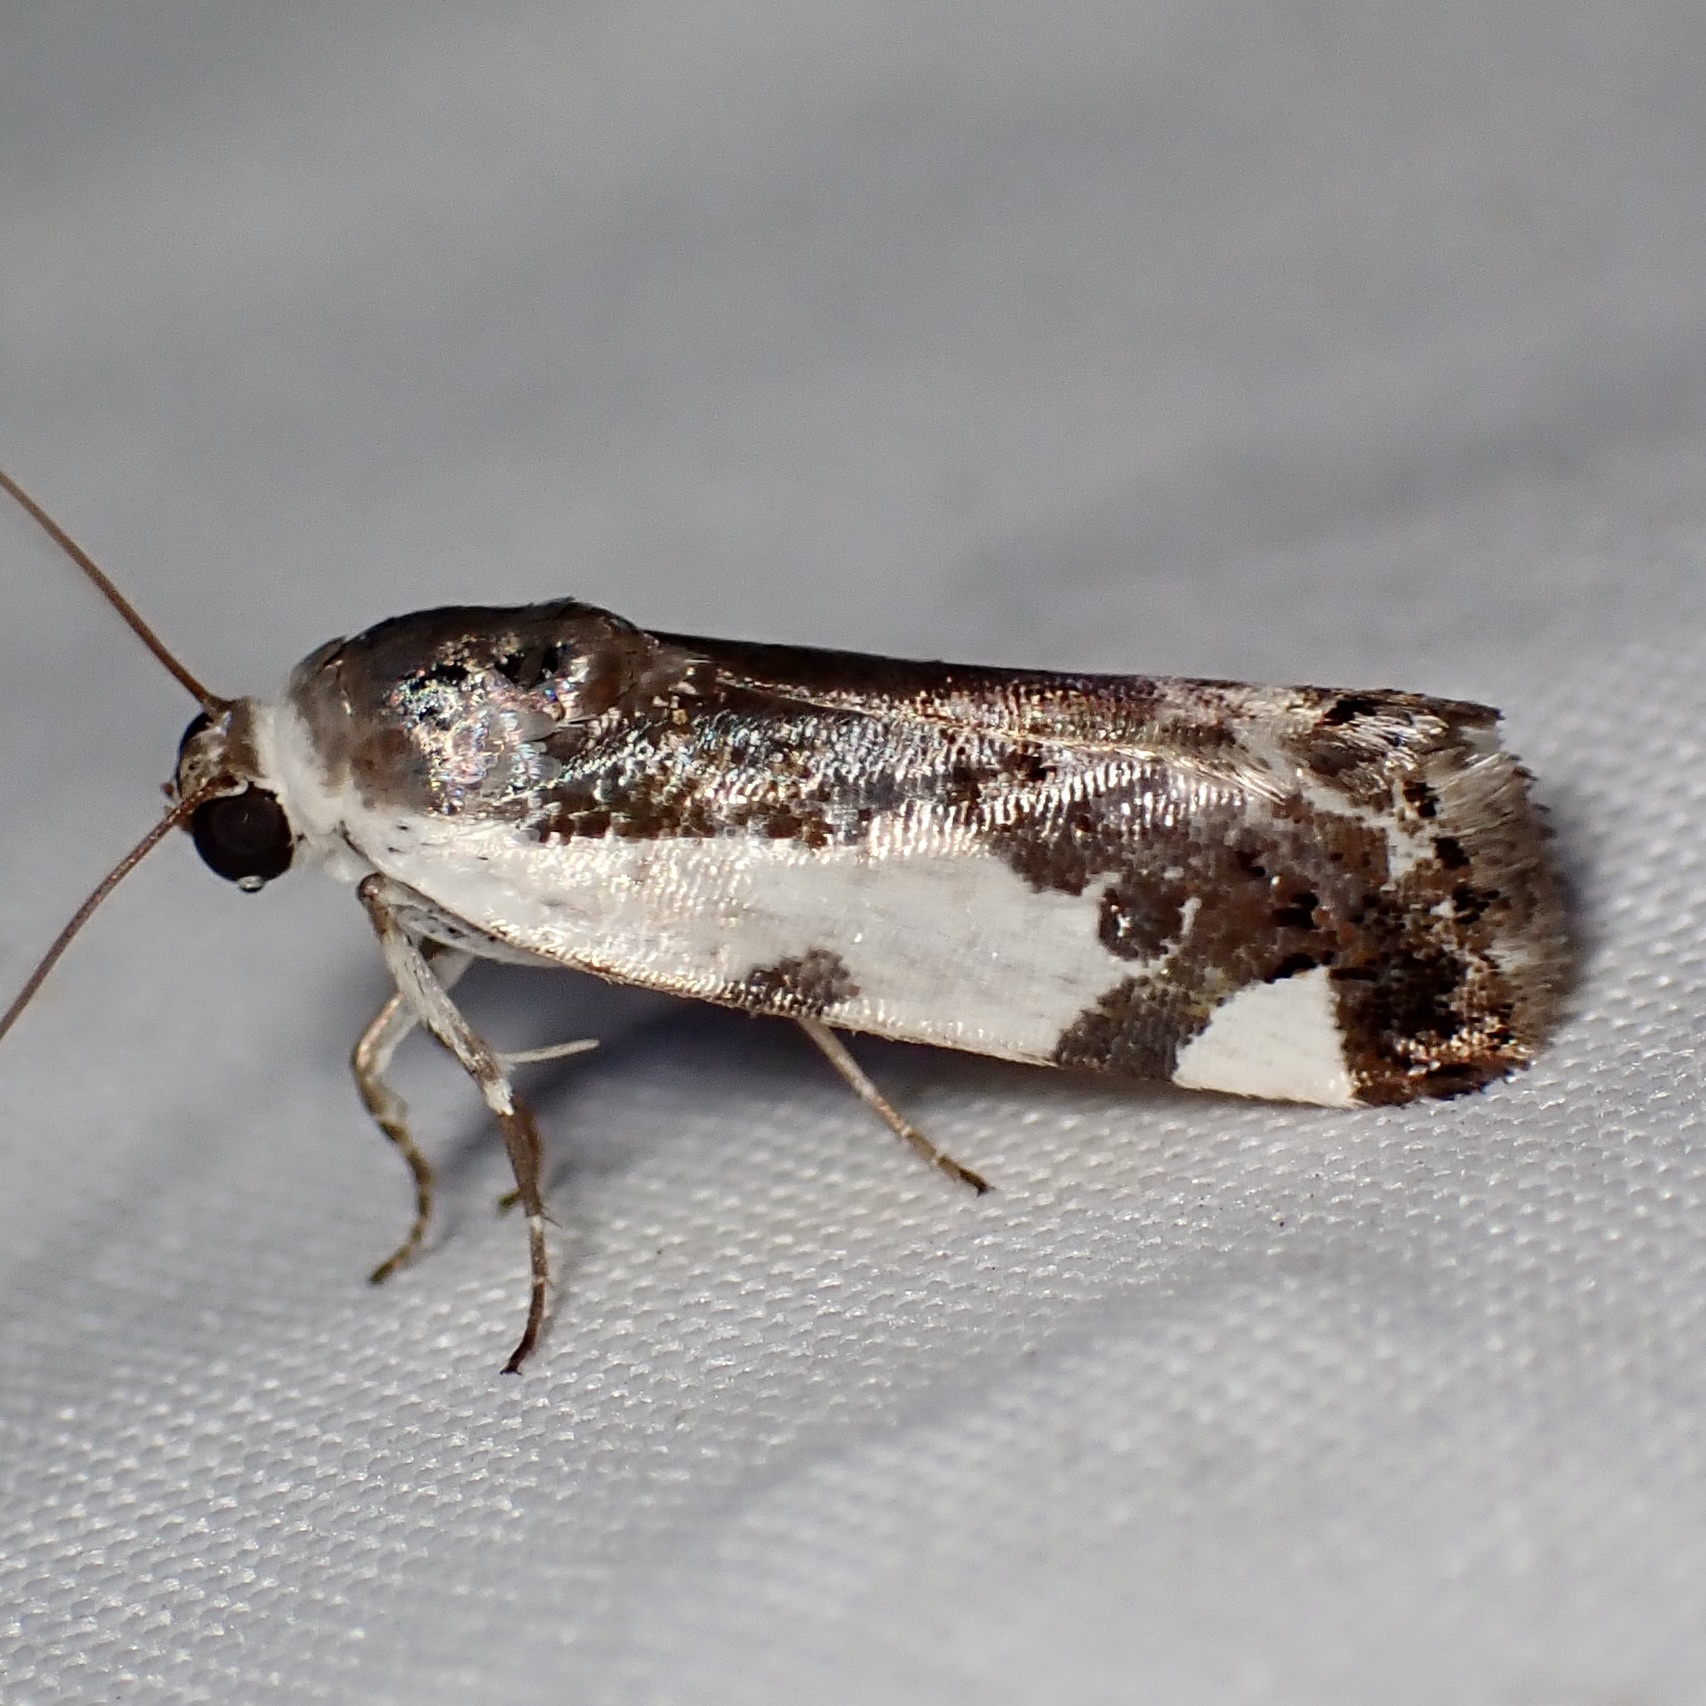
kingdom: Animalia
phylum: Arthropoda
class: Insecta
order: Lepidoptera
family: Noctuidae
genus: Acontia
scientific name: Acontia lucasi
